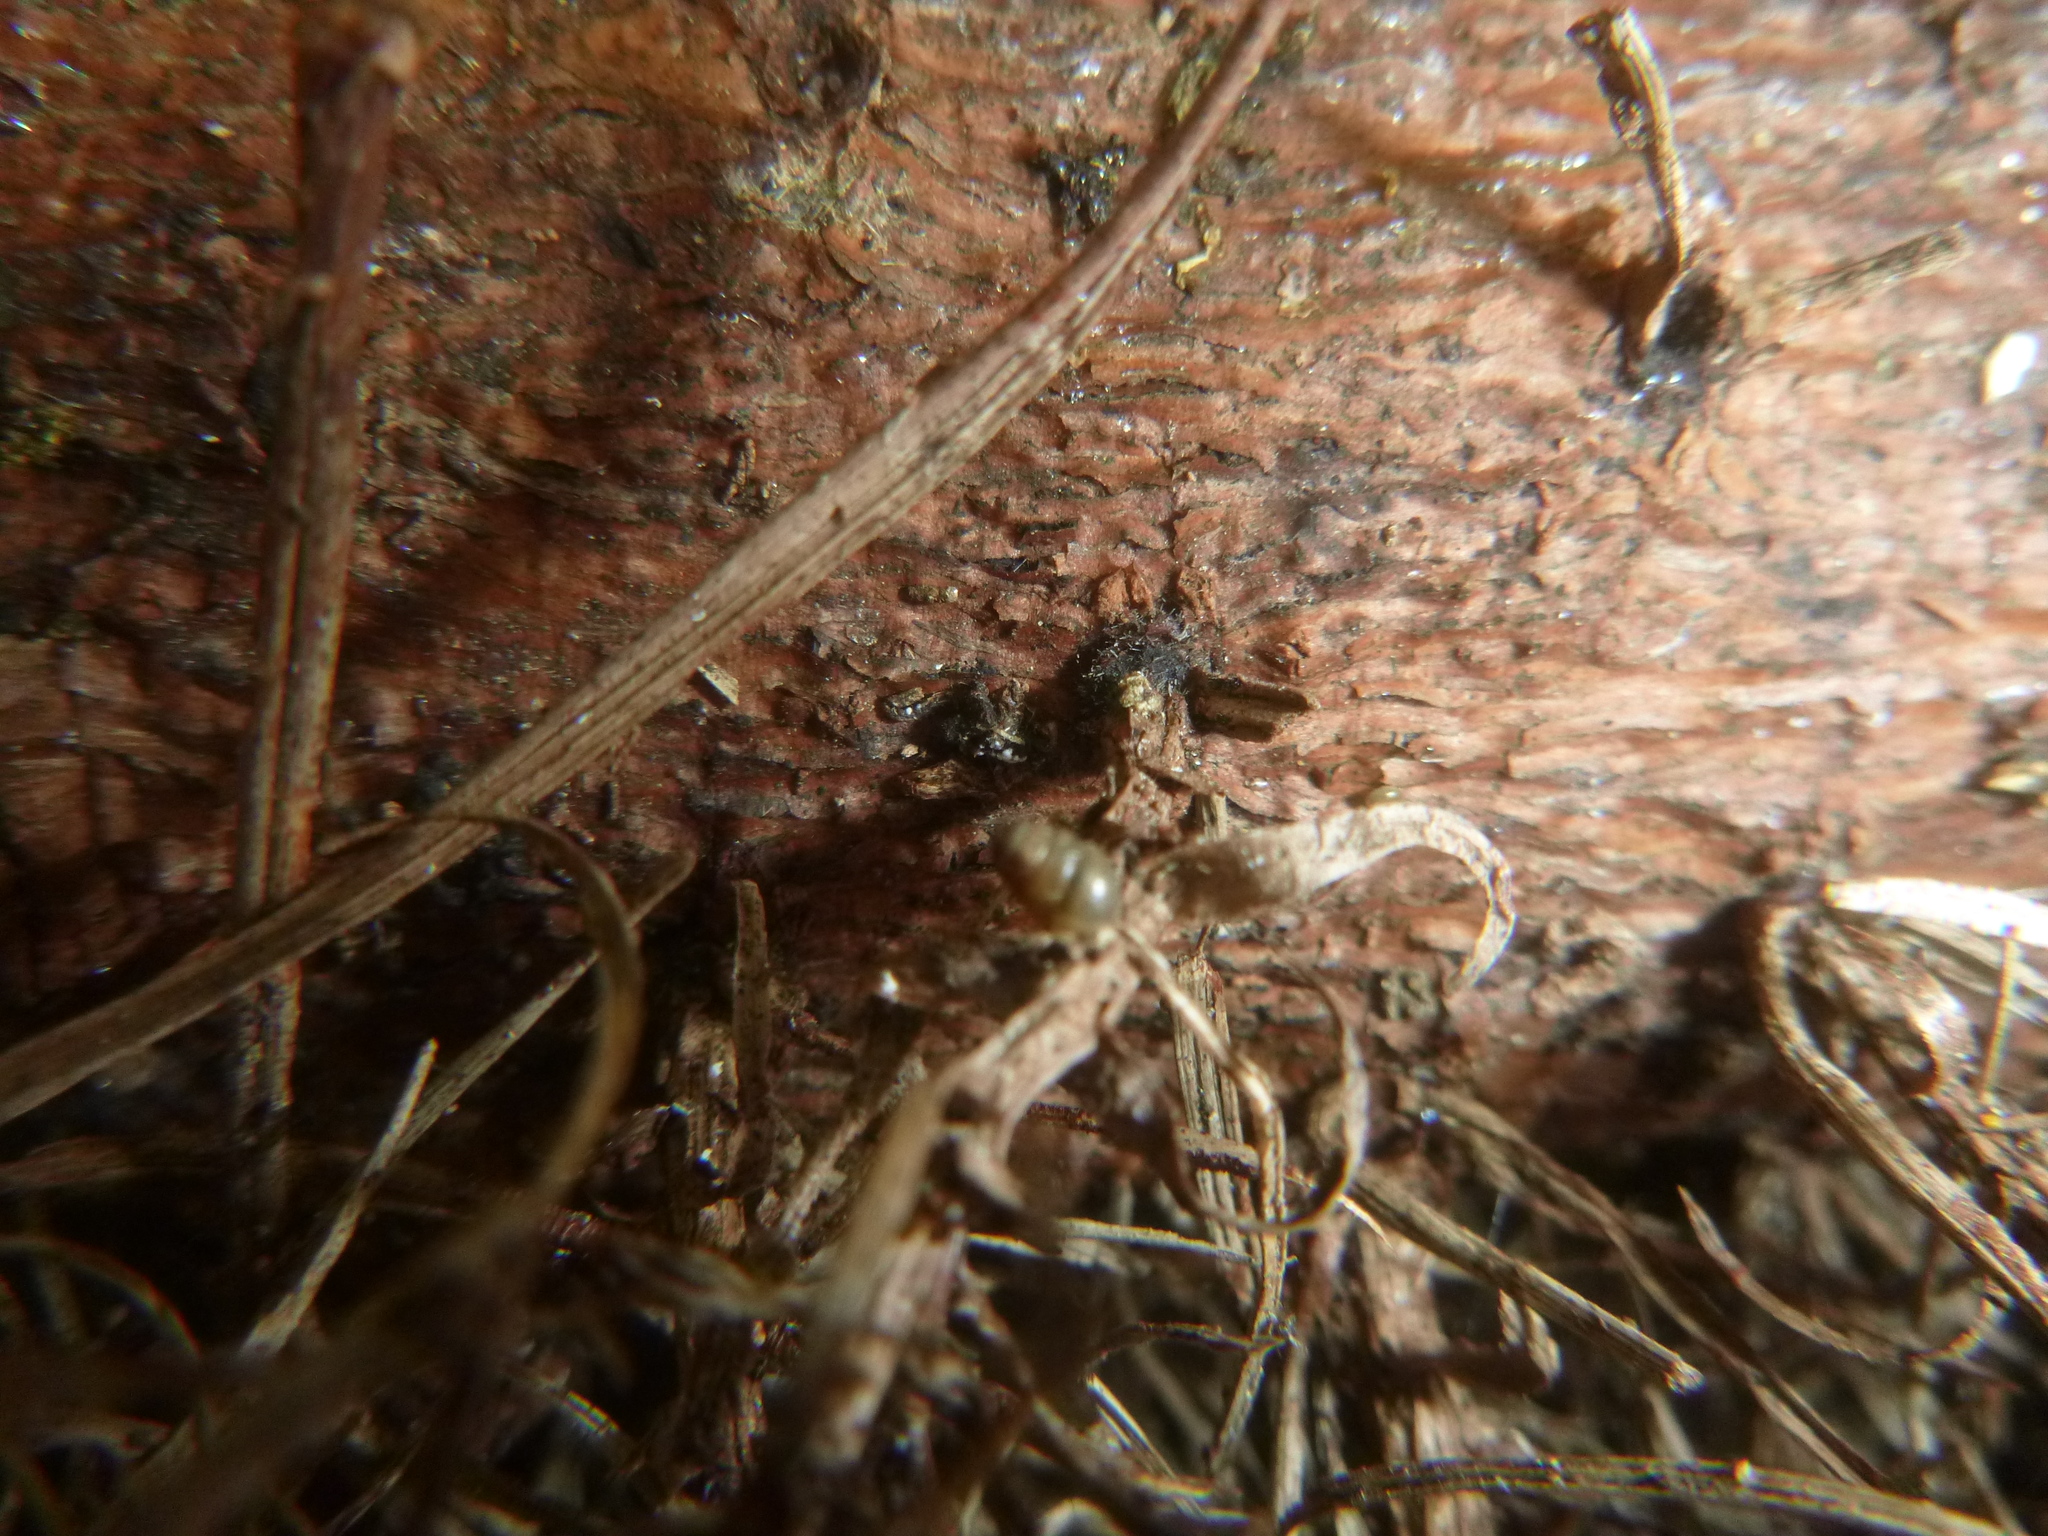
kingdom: Animalia
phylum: Mollusca
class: Gastropoda
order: Stylommatophora
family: Lauriidae
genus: Lauria
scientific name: Lauria cylindracea
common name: Common chrysalis snail
